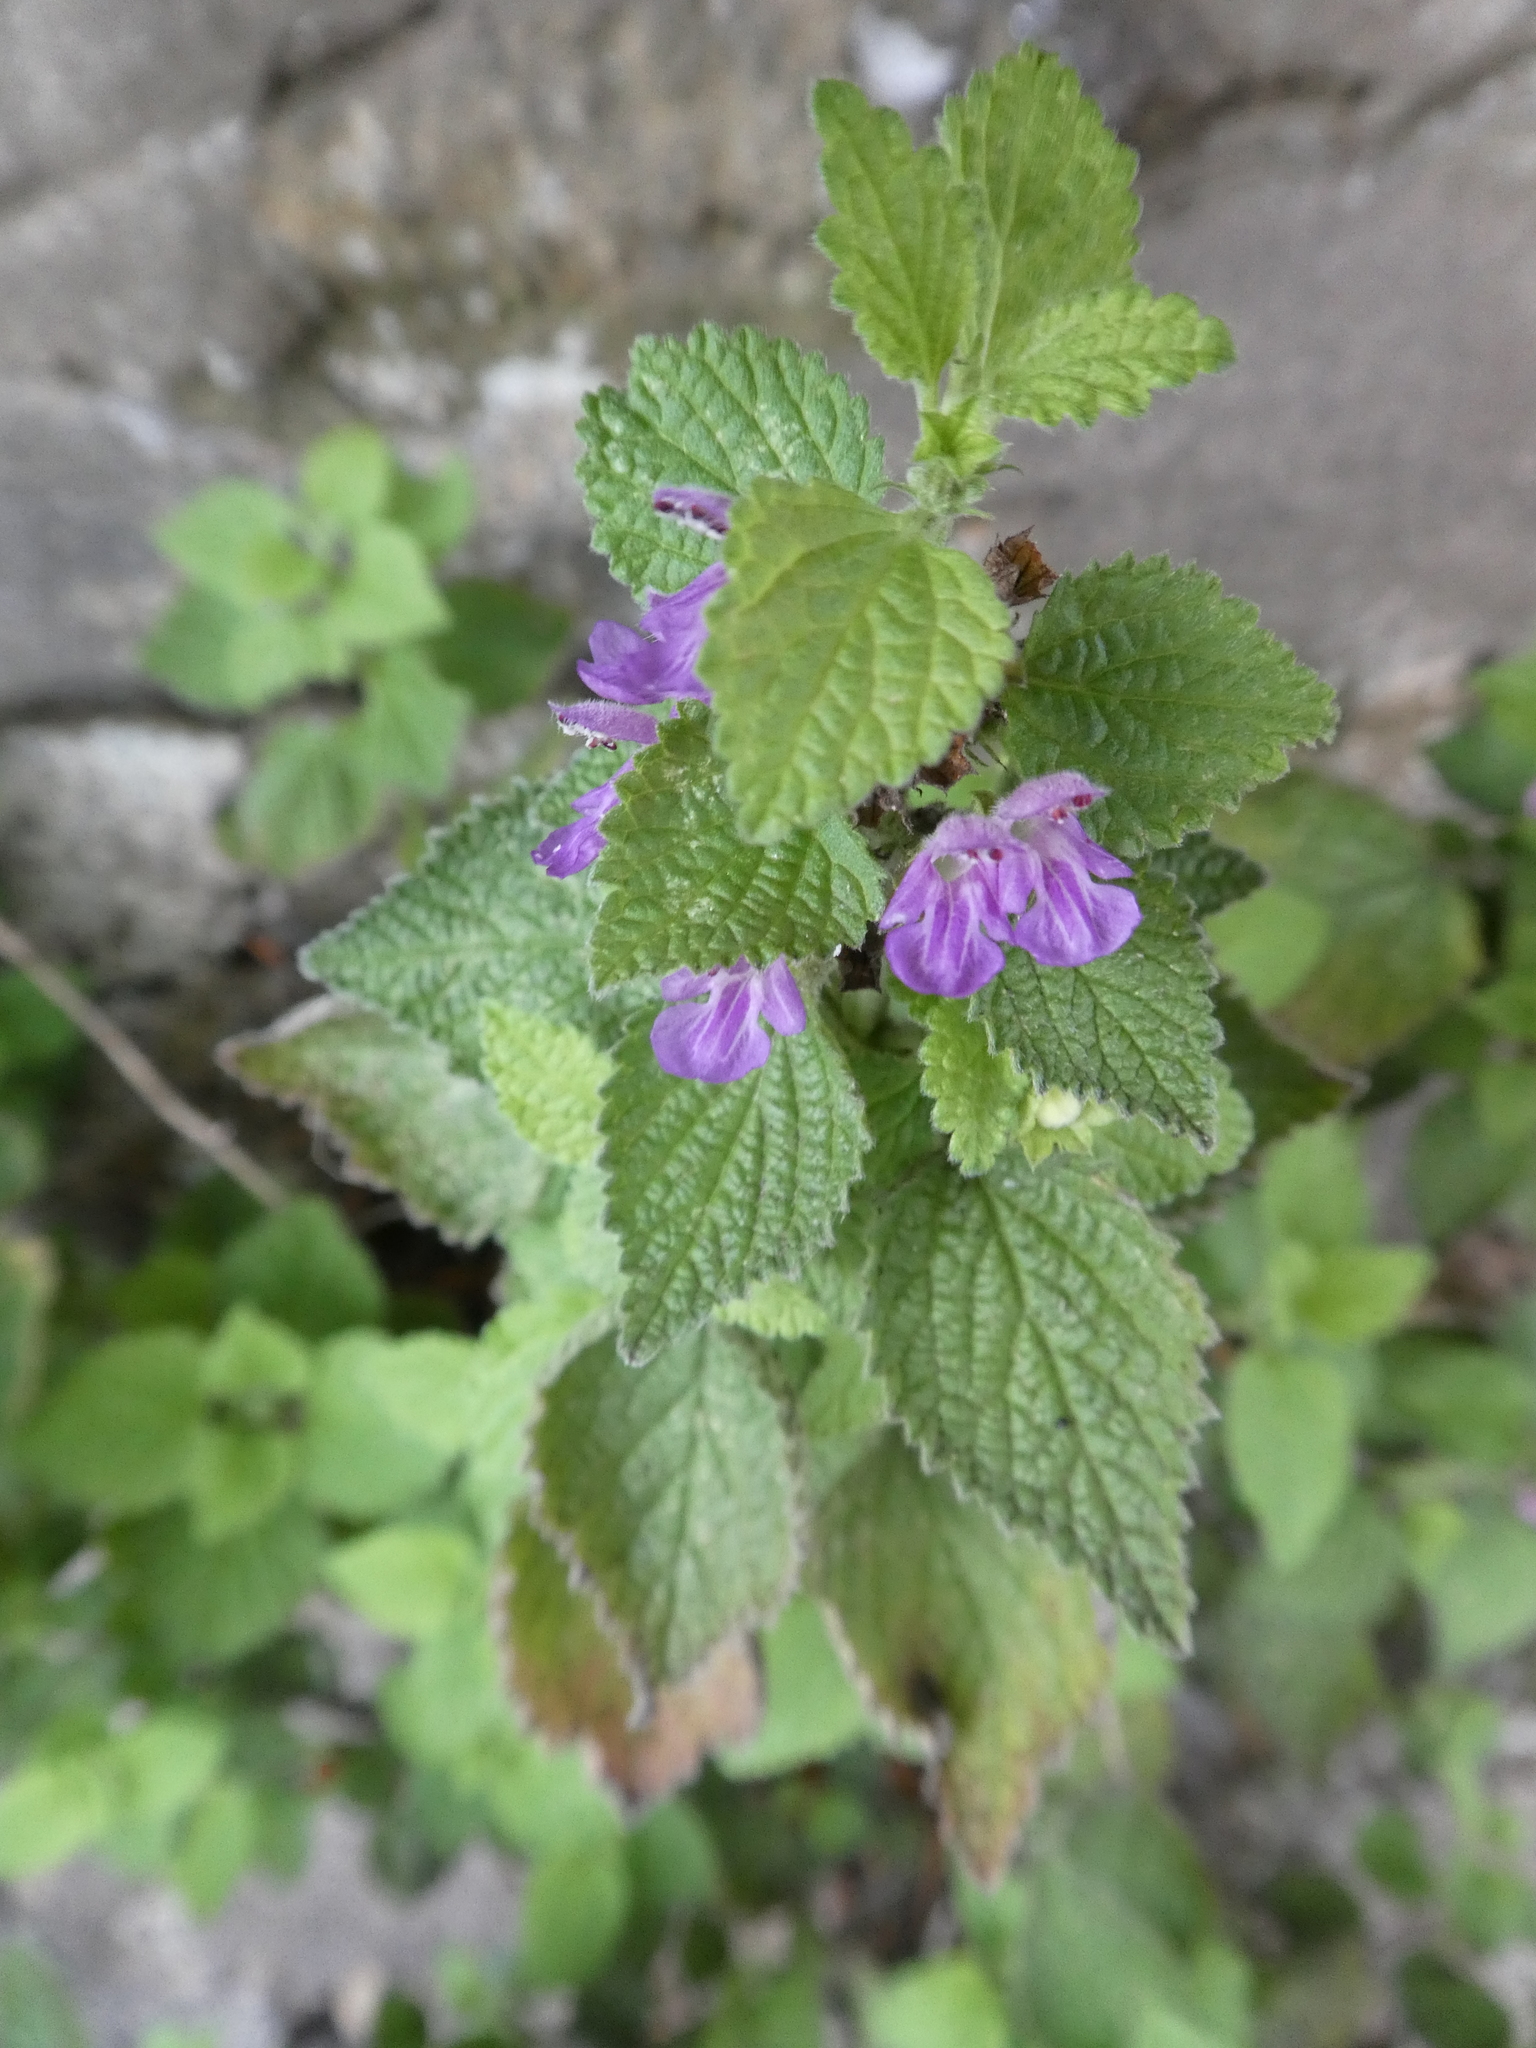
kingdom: Plantae
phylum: Tracheophyta
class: Magnoliopsida
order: Lamiales
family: Lamiaceae
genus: Ballota
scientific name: Ballota nigra
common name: Black horehound
